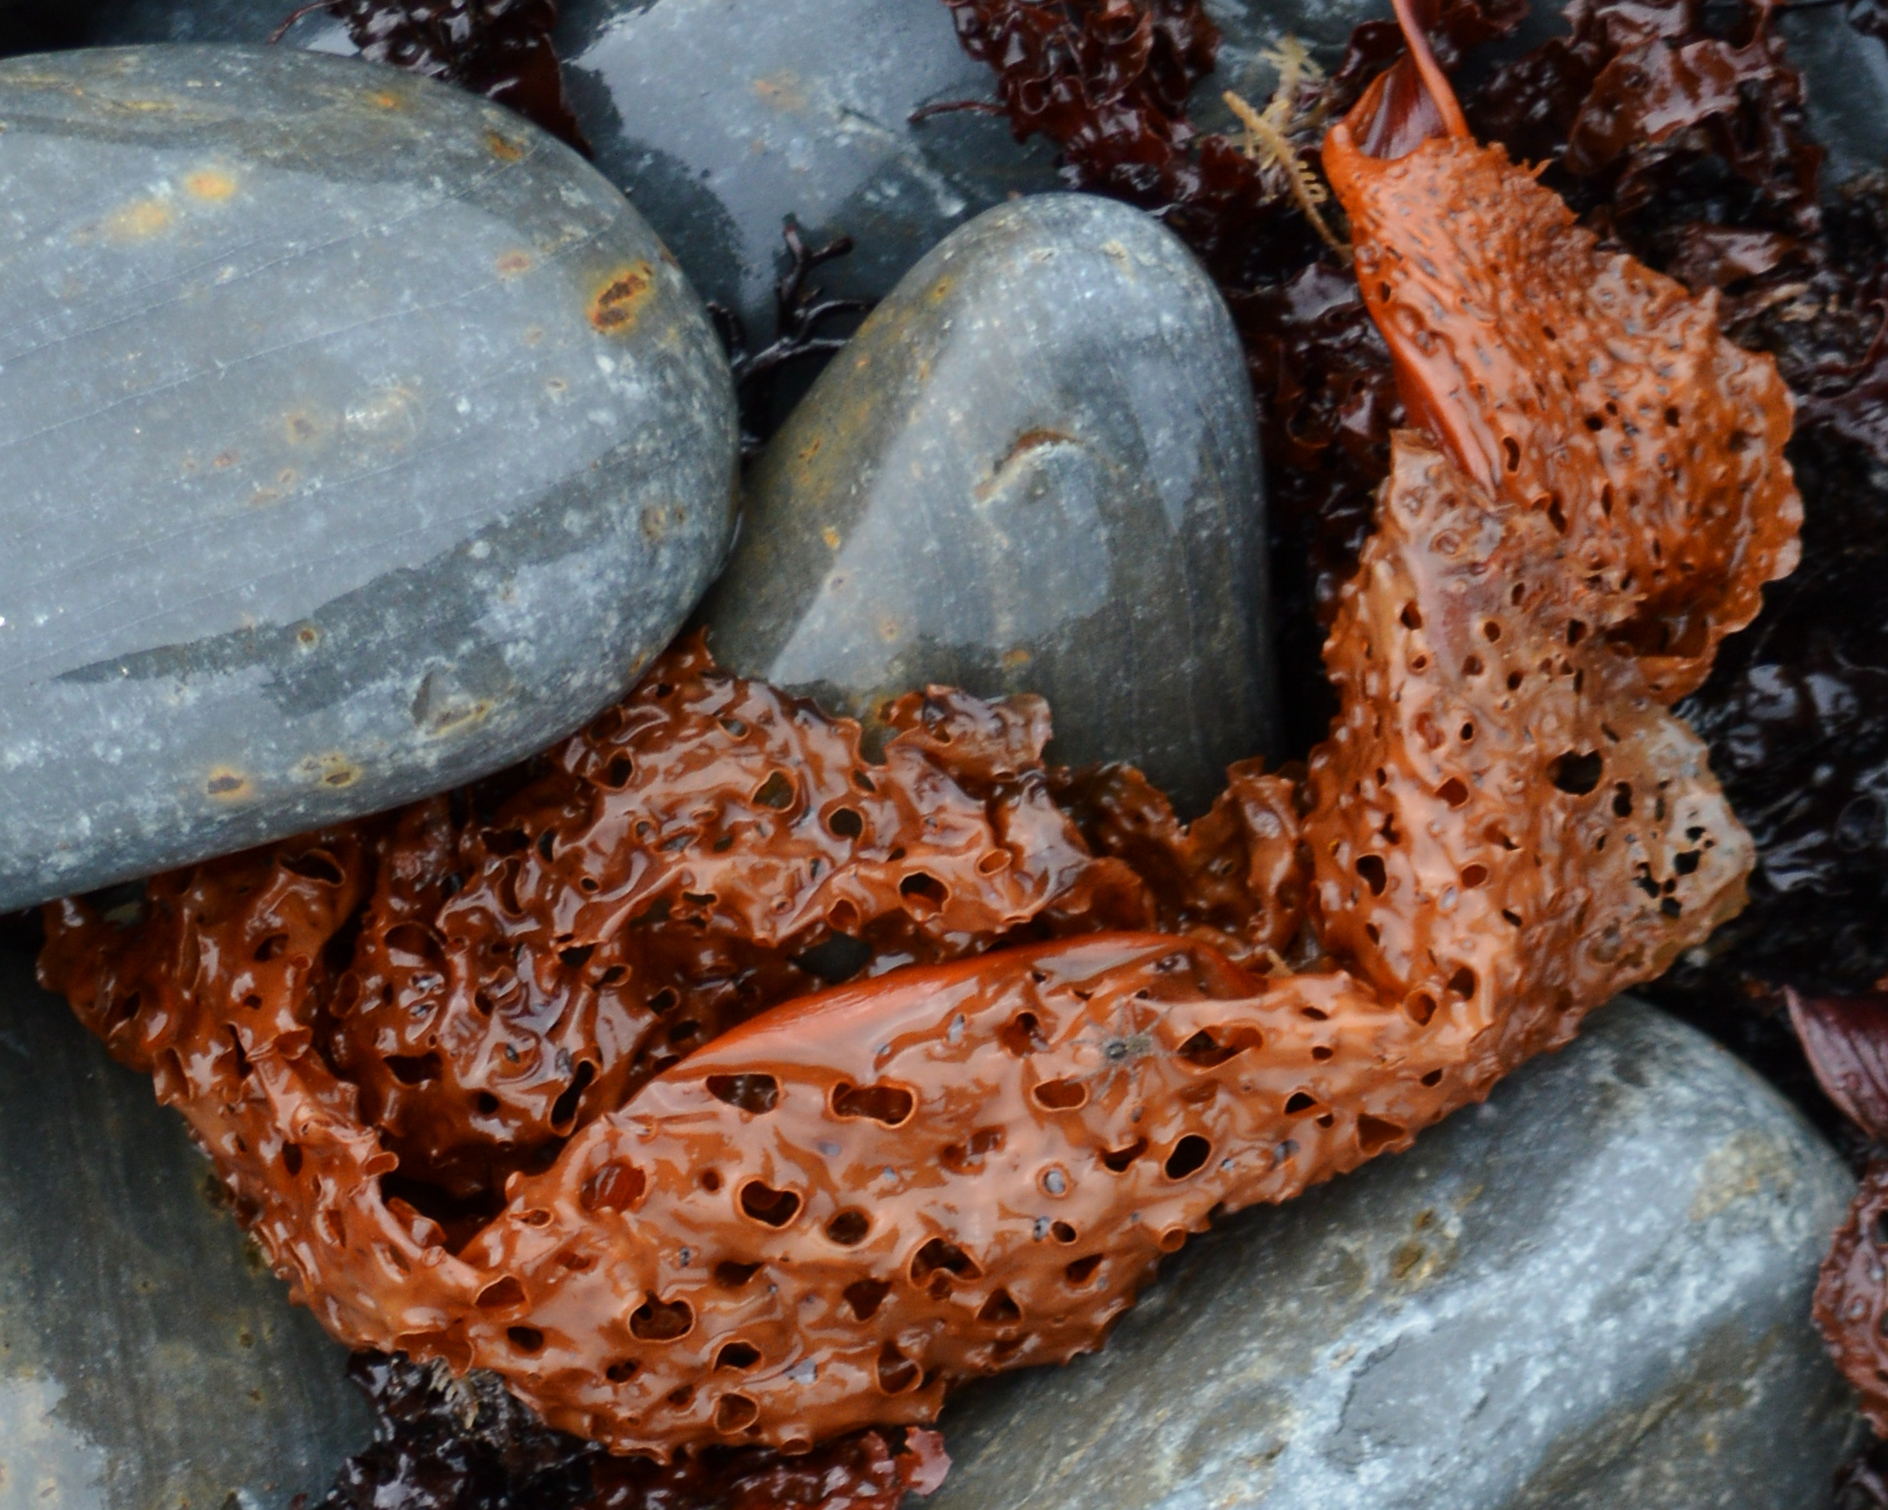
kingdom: Chromista
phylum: Ochrophyta
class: Phaeophyceae
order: Laminariales
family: Costariaceae
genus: Agarum
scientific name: Agarum clathratum
